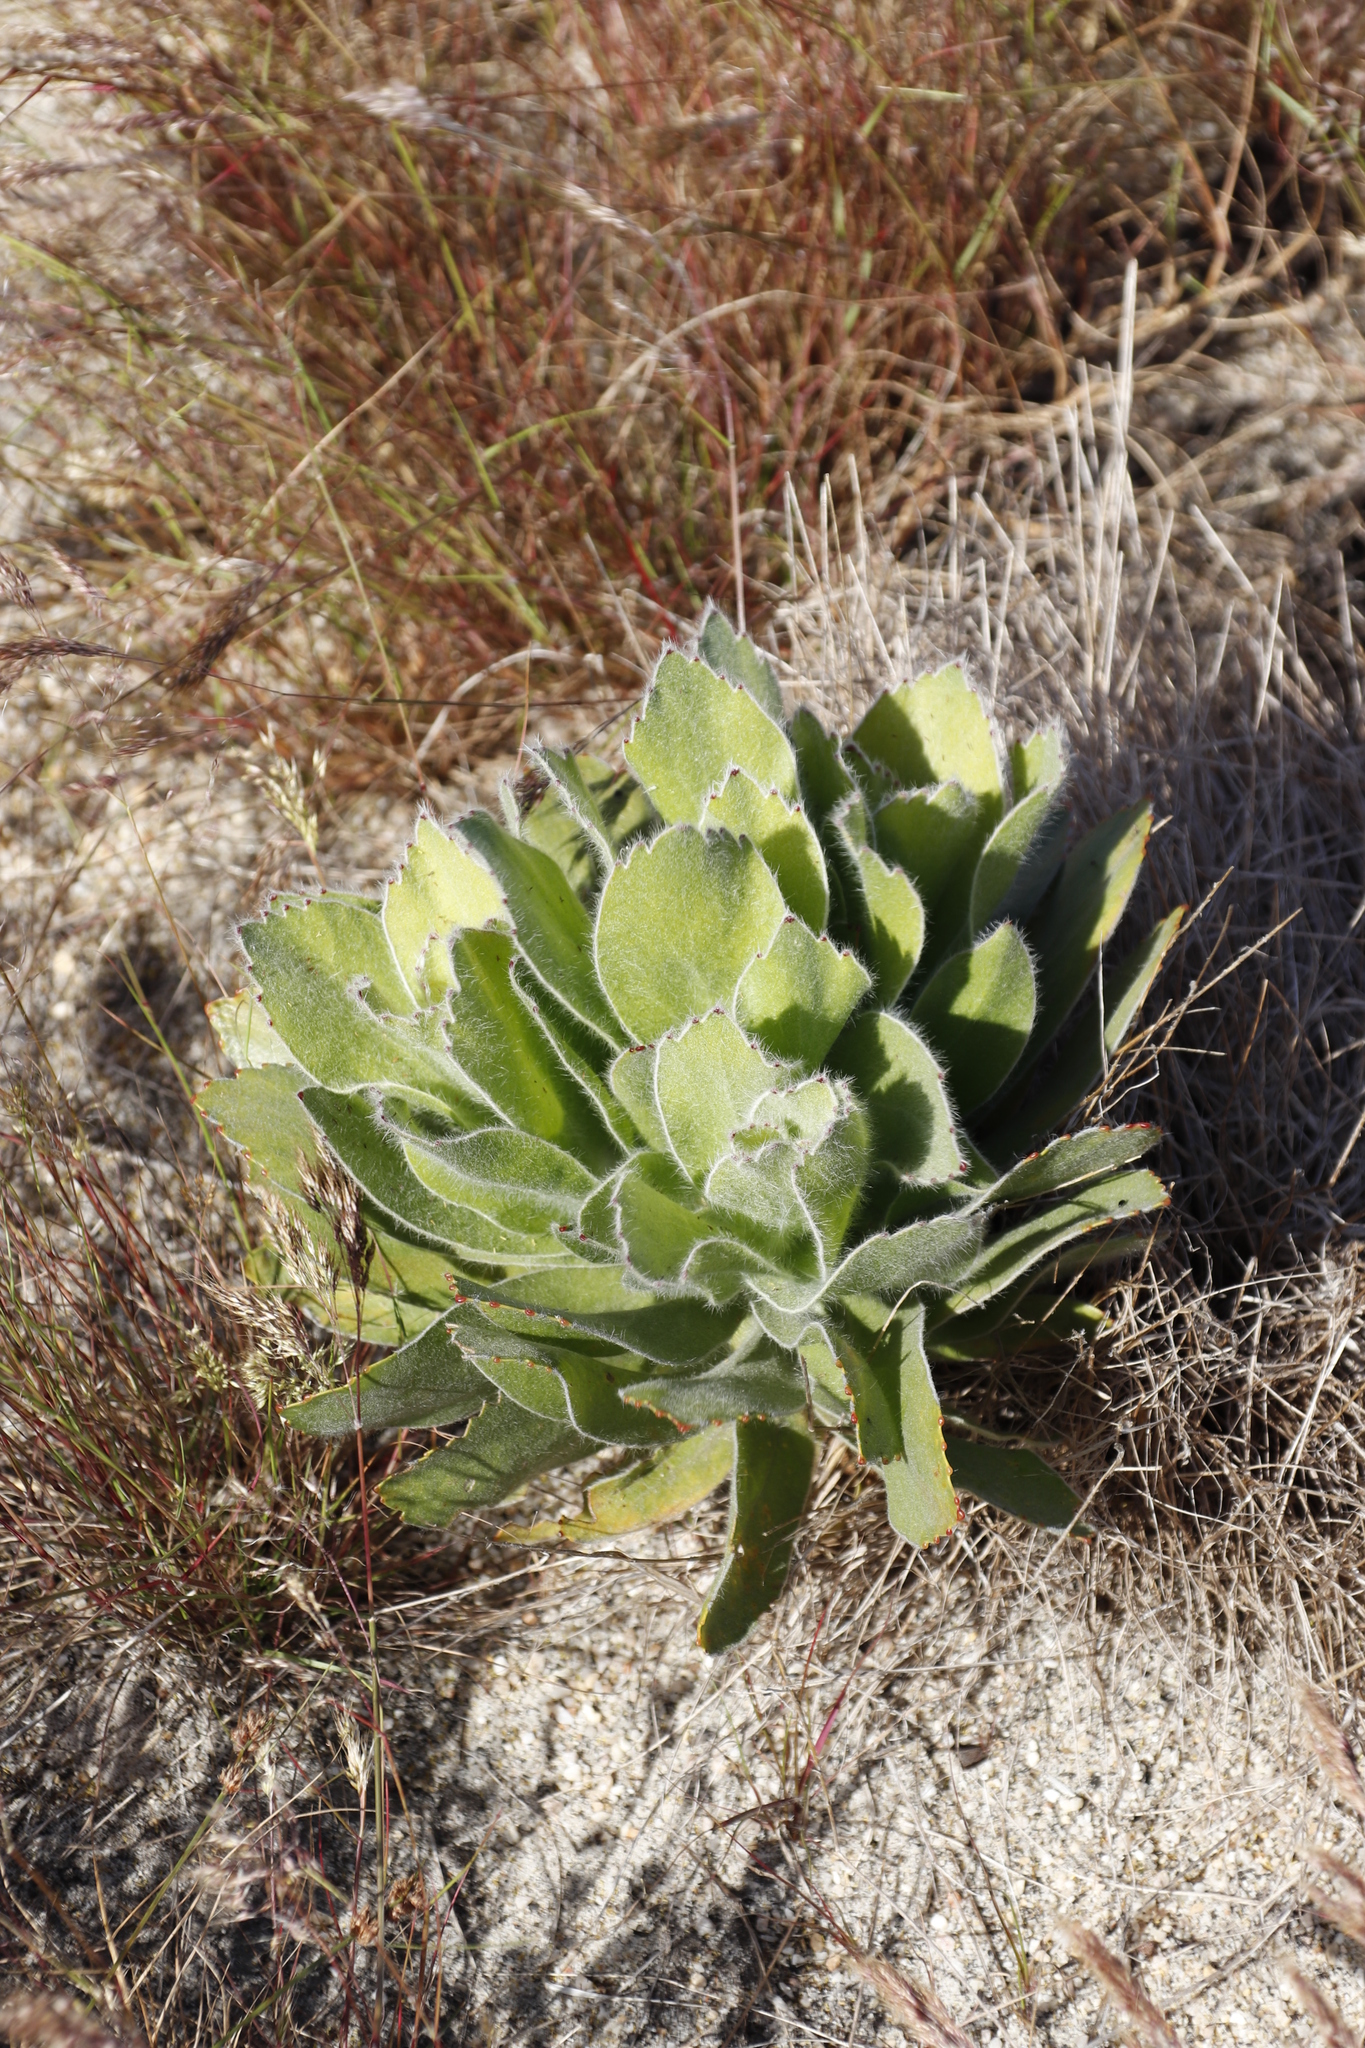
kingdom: Plantae
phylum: Tracheophyta
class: Magnoliopsida
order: Proteales
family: Proteaceae
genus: Leucospermum
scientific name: Leucospermum conocarpodendron
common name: Tree pincushion
